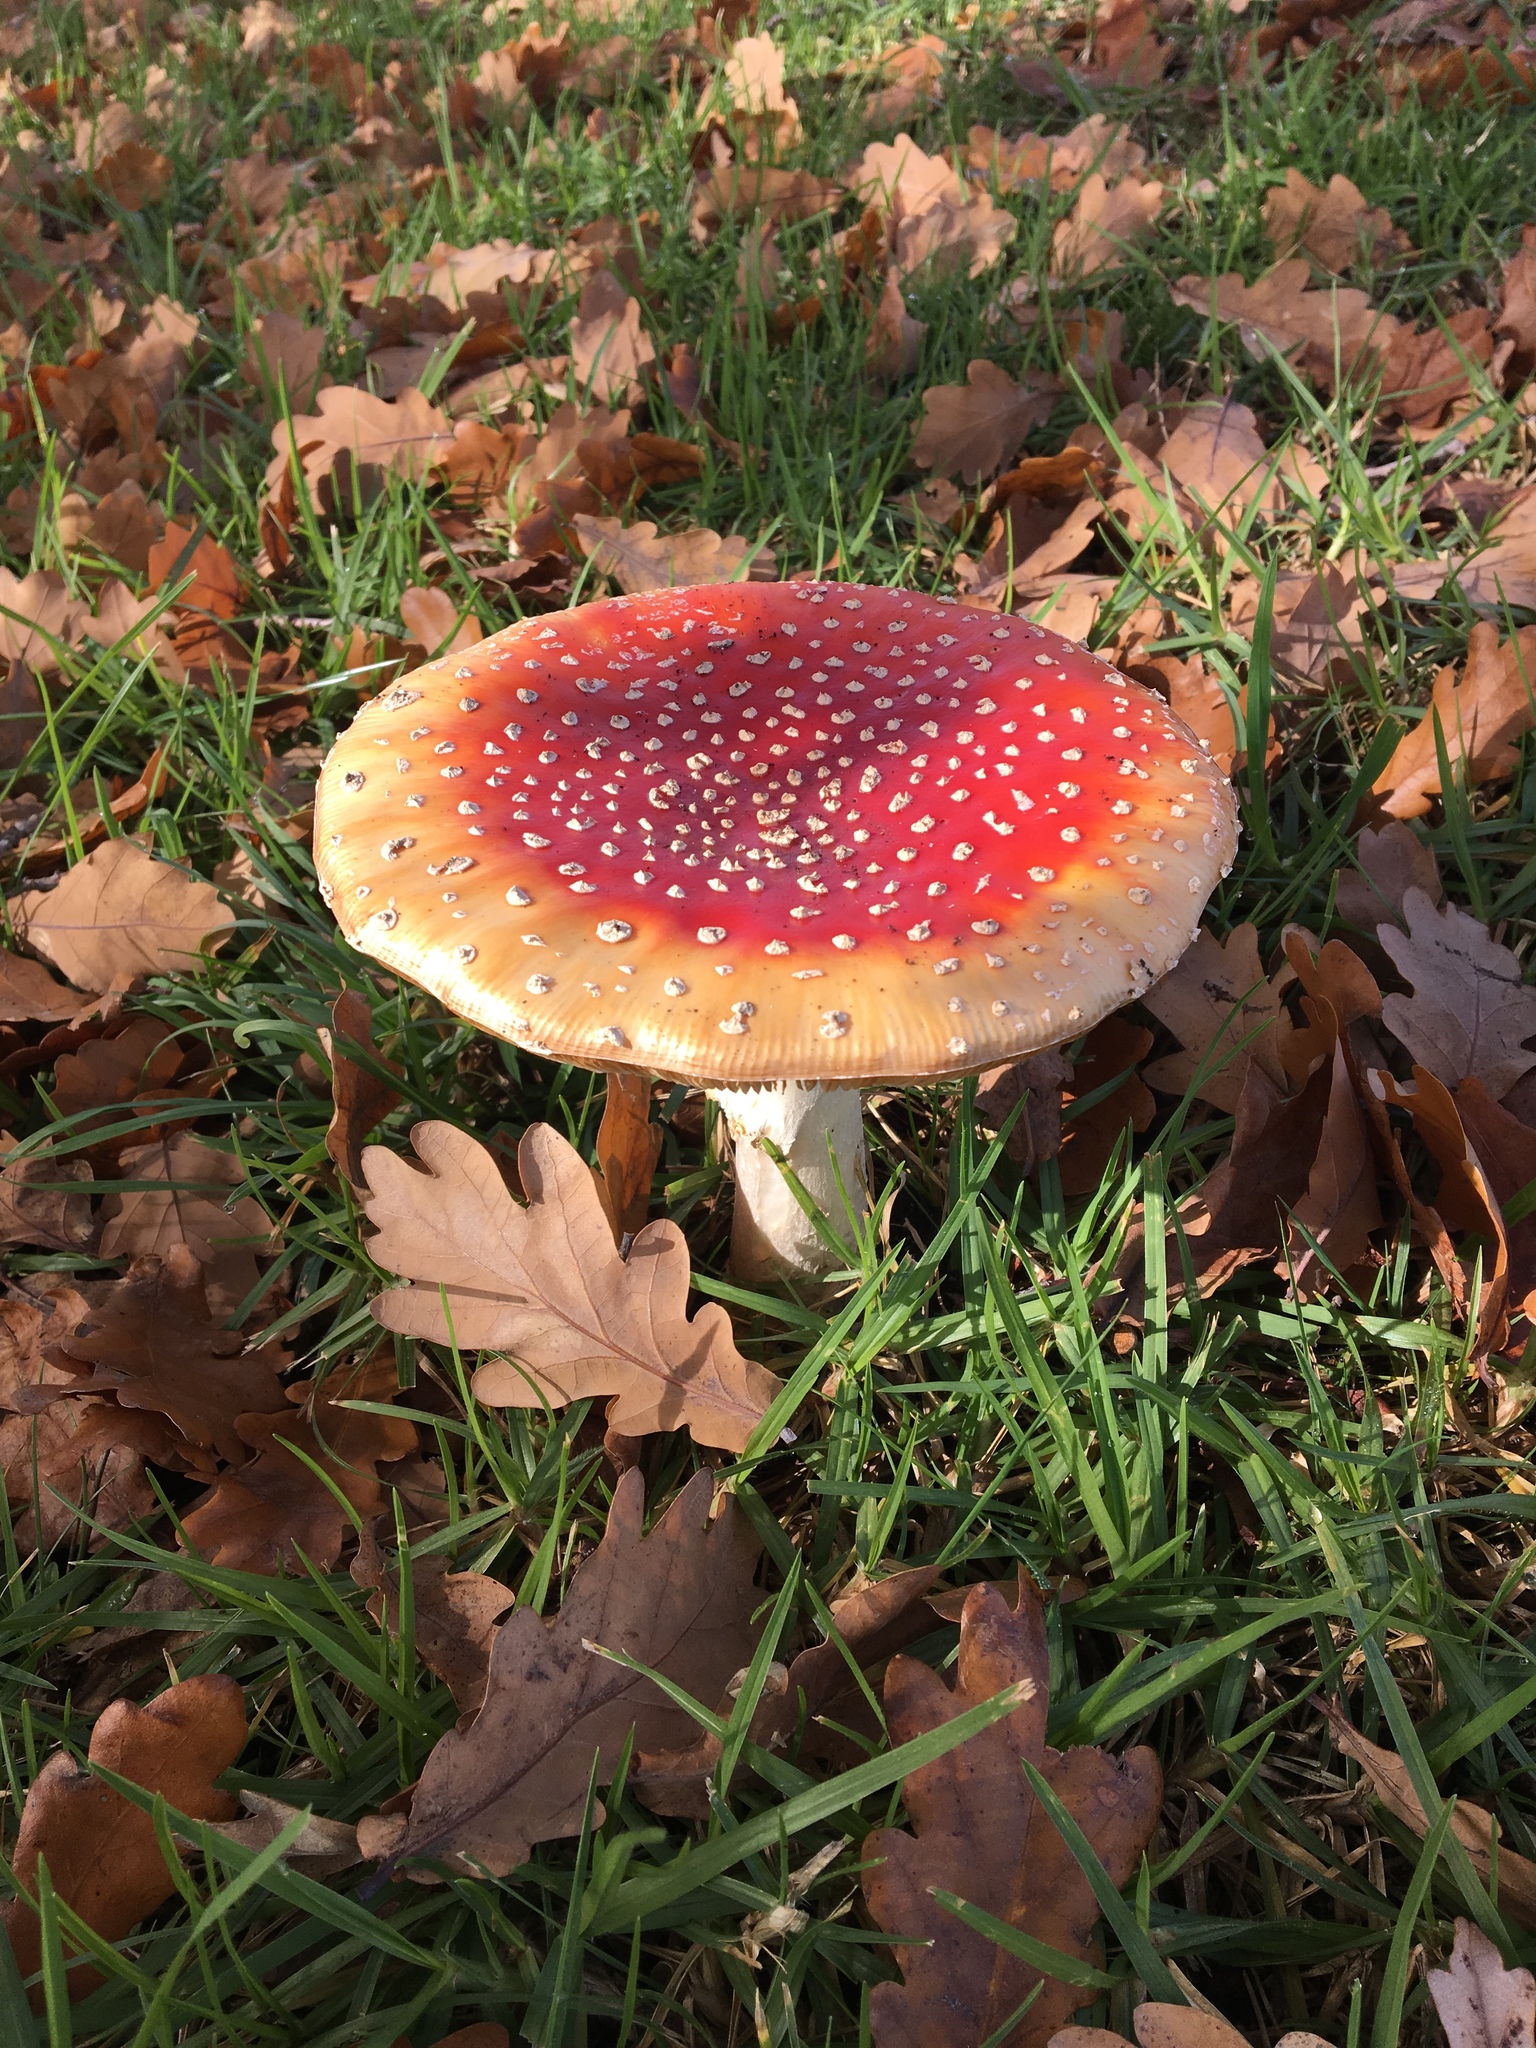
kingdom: Fungi
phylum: Basidiomycota
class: Agaricomycetes
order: Agaricales
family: Amanitaceae
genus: Amanita
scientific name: Amanita muscaria
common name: Fly agaric
